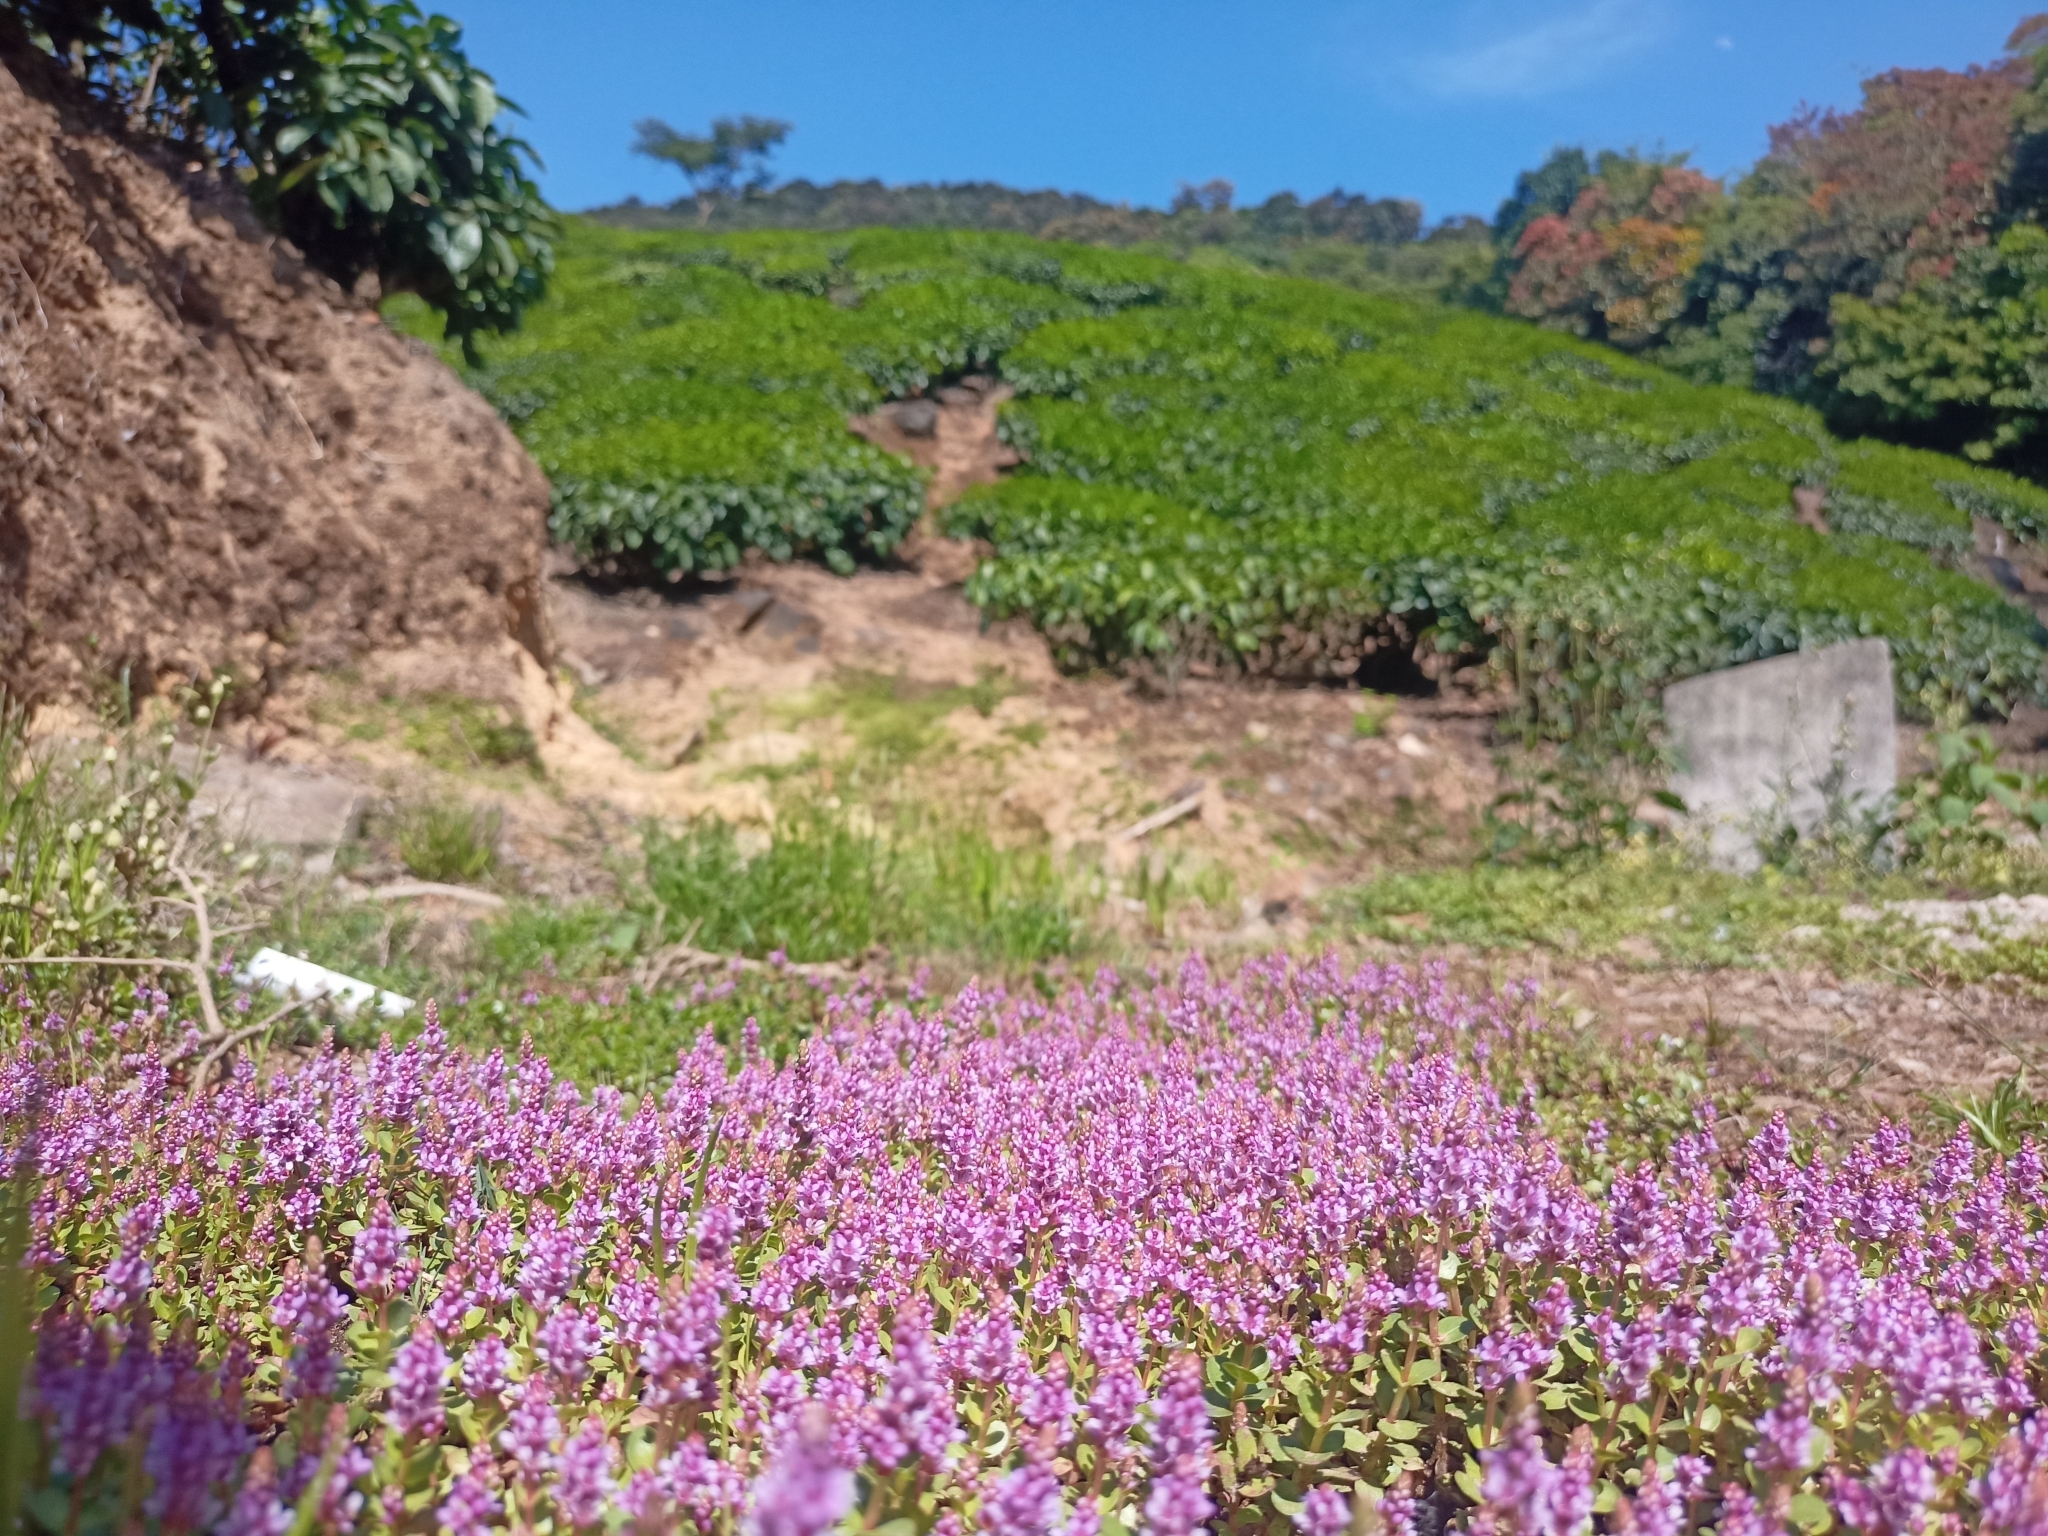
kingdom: Plantae
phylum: Tracheophyta
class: Magnoliopsida
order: Myrtales
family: Lythraceae
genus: Rotala
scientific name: Rotala rotundifolia
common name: Roundleaf toothcup
